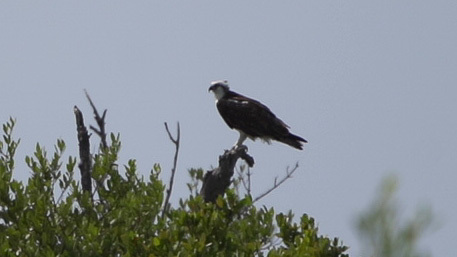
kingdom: Animalia
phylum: Chordata
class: Aves
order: Accipitriformes
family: Pandionidae
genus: Pandion
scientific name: Pandion haliaetus
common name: Osprey
